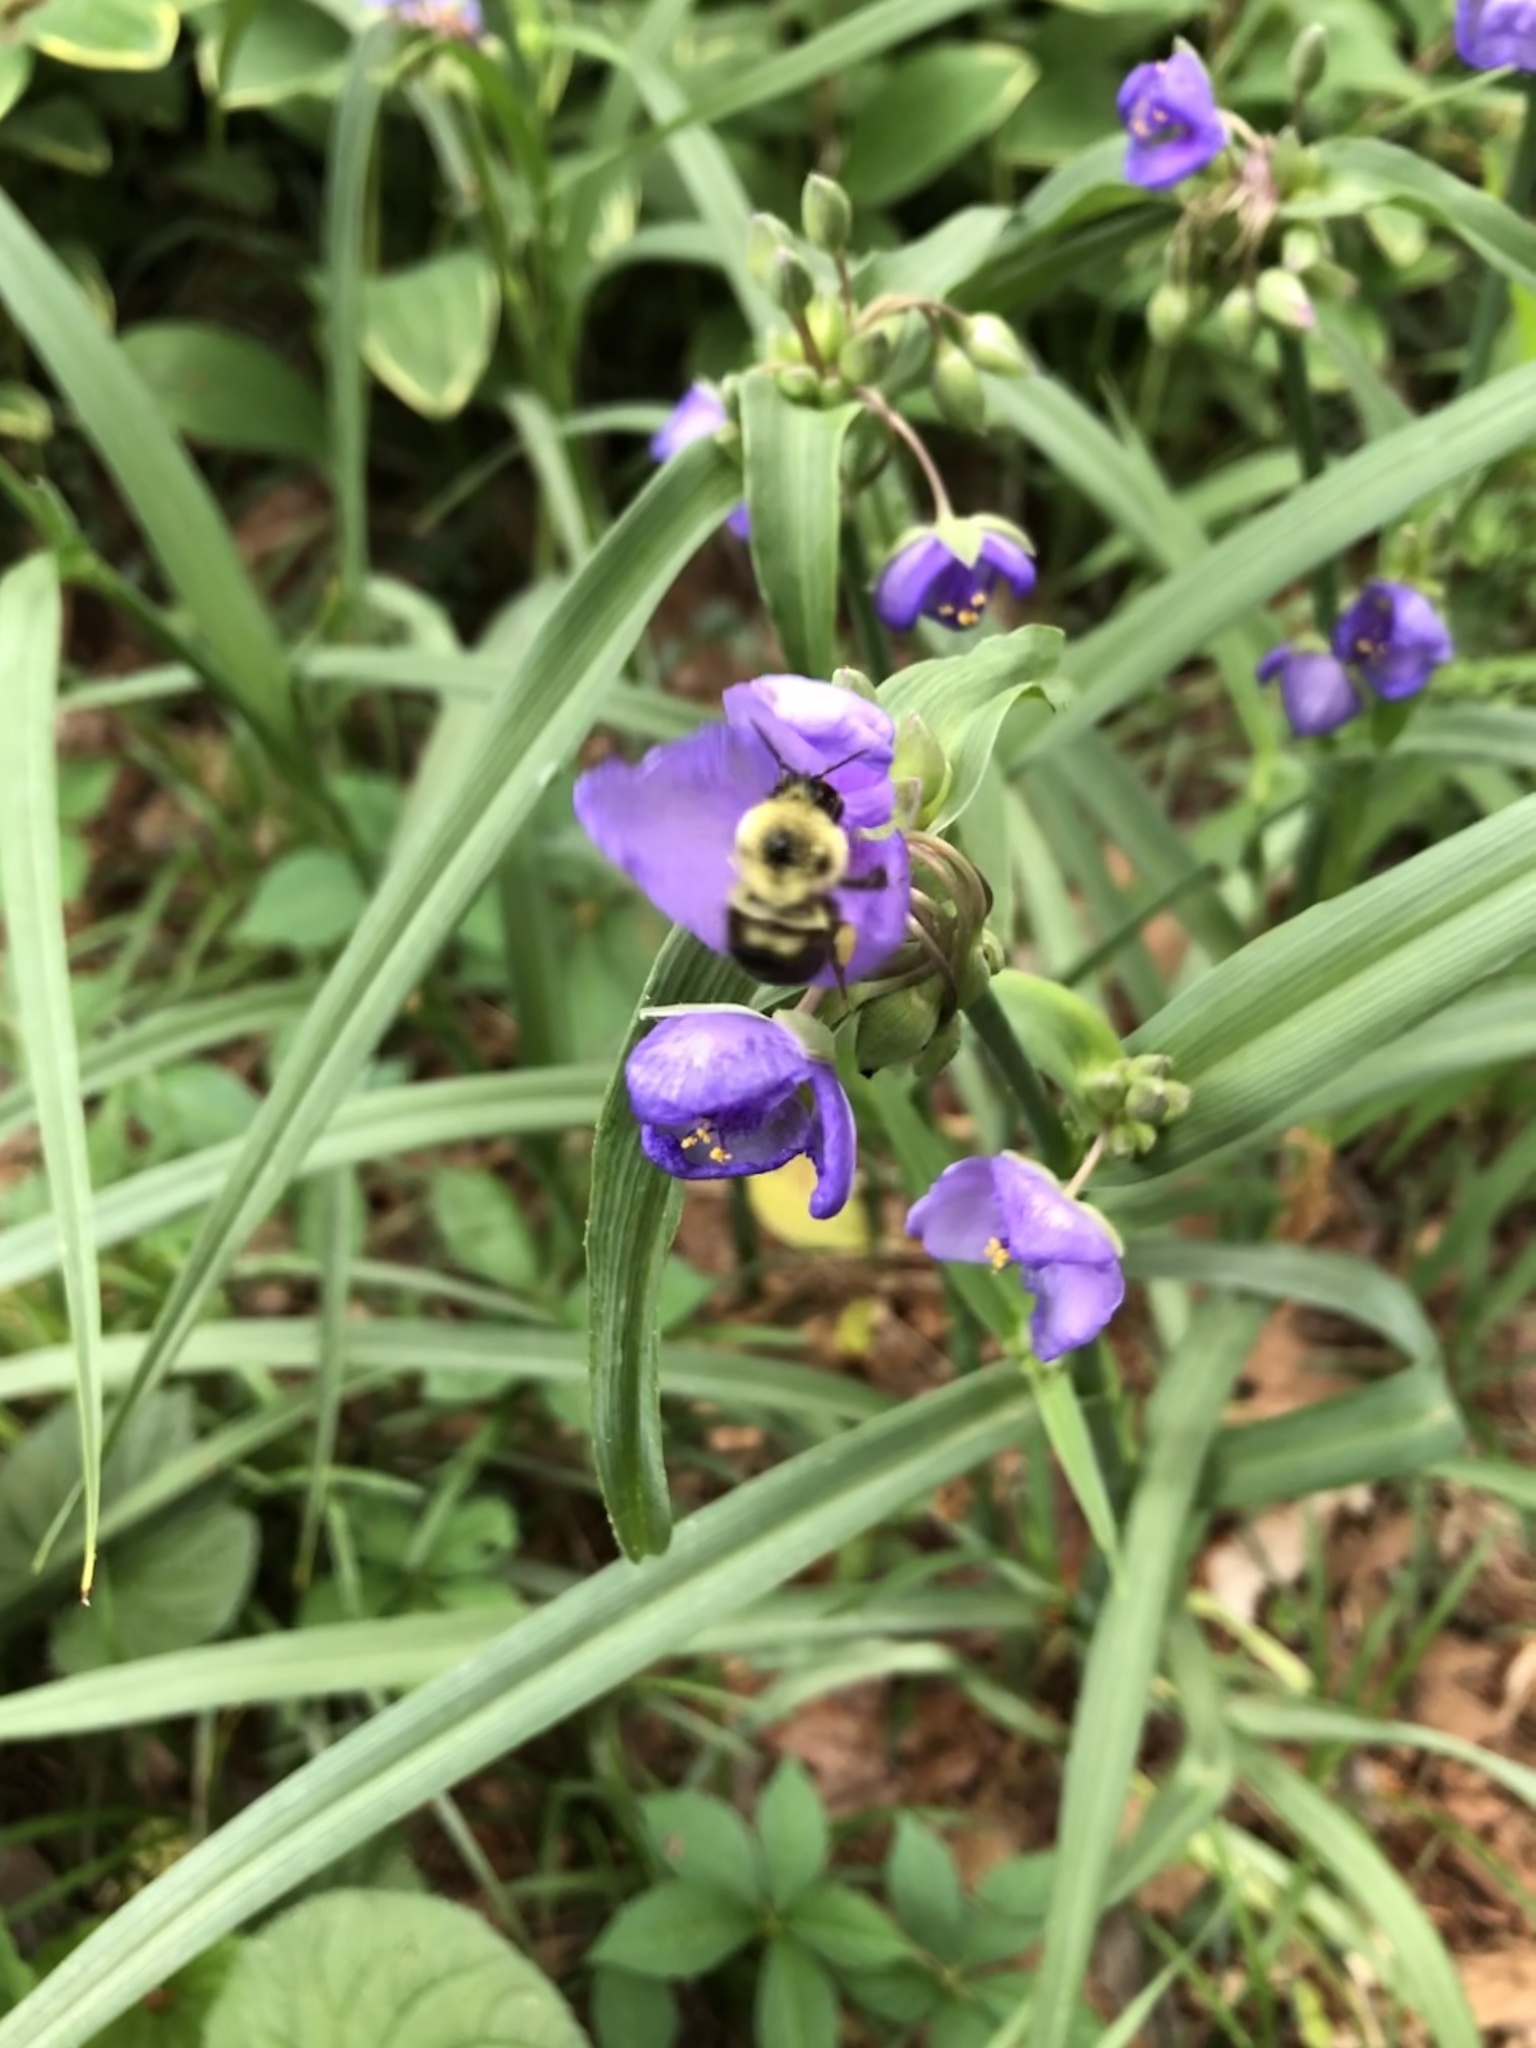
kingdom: Animalia
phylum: Arthropoda
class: Insecta
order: Hymenoptera
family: Apidae
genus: Bombus
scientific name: Bombus bimaculatus
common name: Two-spotted bumble bee
